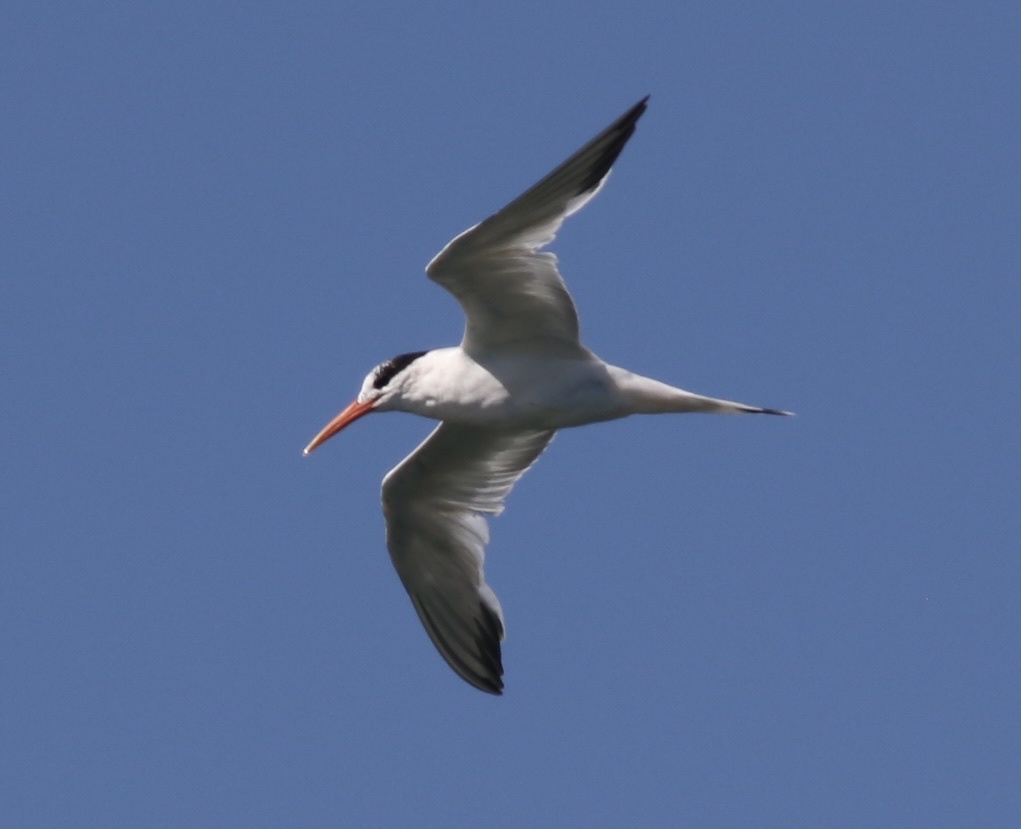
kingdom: Animalia
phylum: Chordata
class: Aves
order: Charadriiformes
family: Laridae
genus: Thalasseus
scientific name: Thalasseus elegans
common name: Elegant tern
